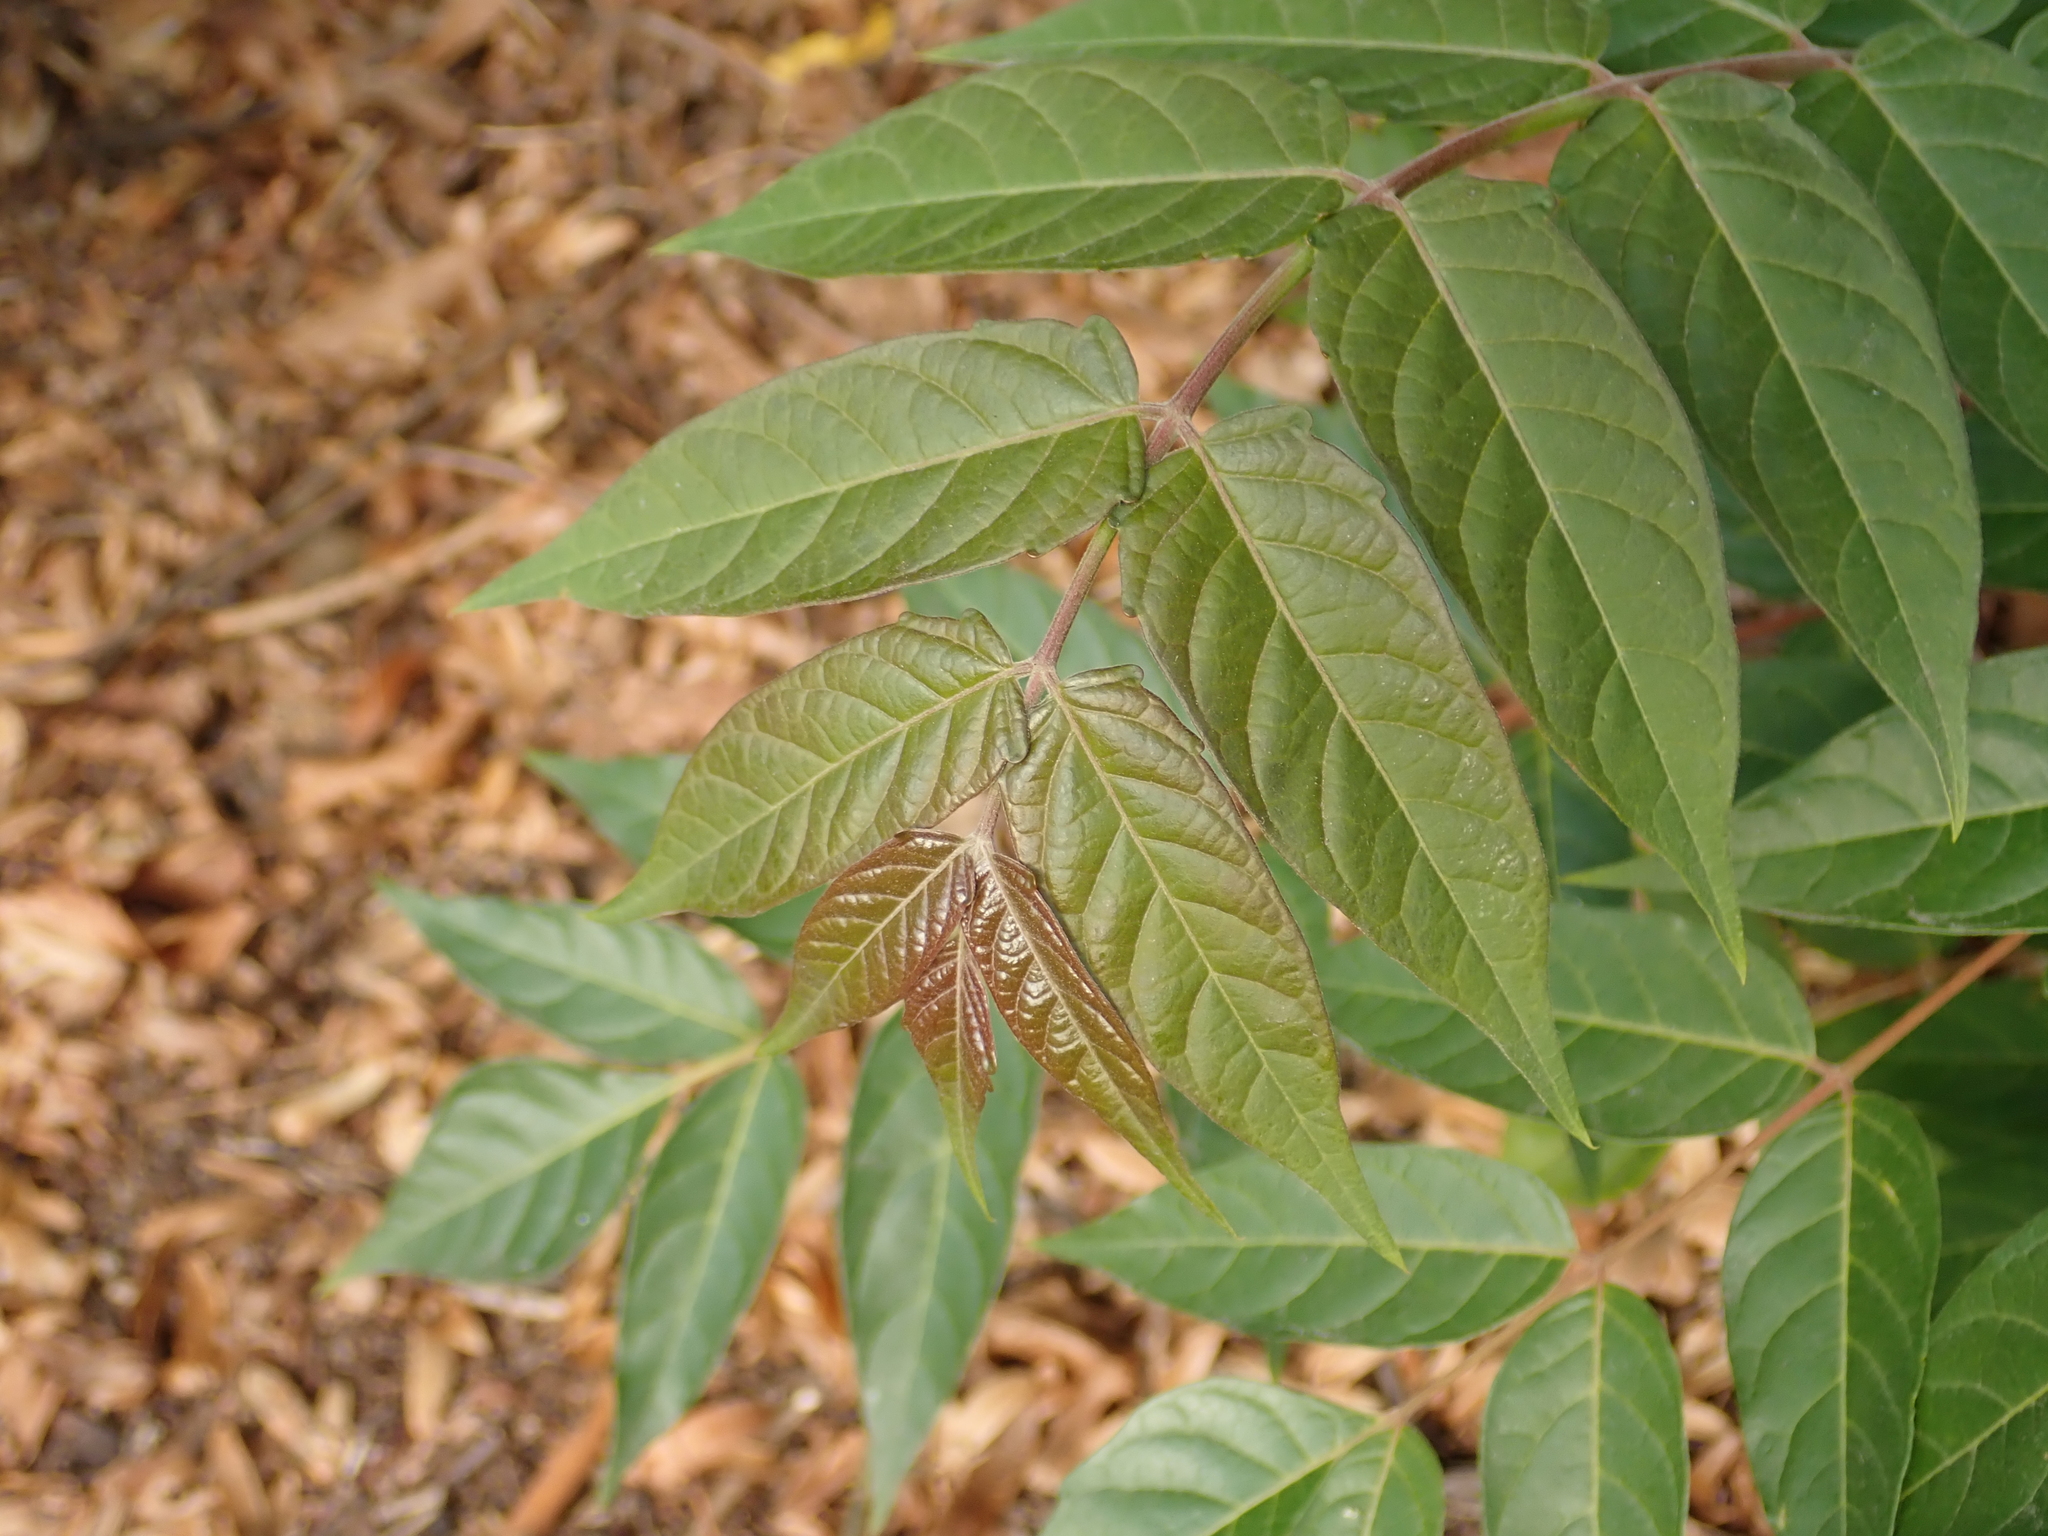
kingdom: Plantae
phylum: Tracheophyta
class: Magnoliopsida
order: Sapindales
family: Simaroubaceae
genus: Ailanthus
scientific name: Ailanthus altissima
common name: Tree-of-heaven
